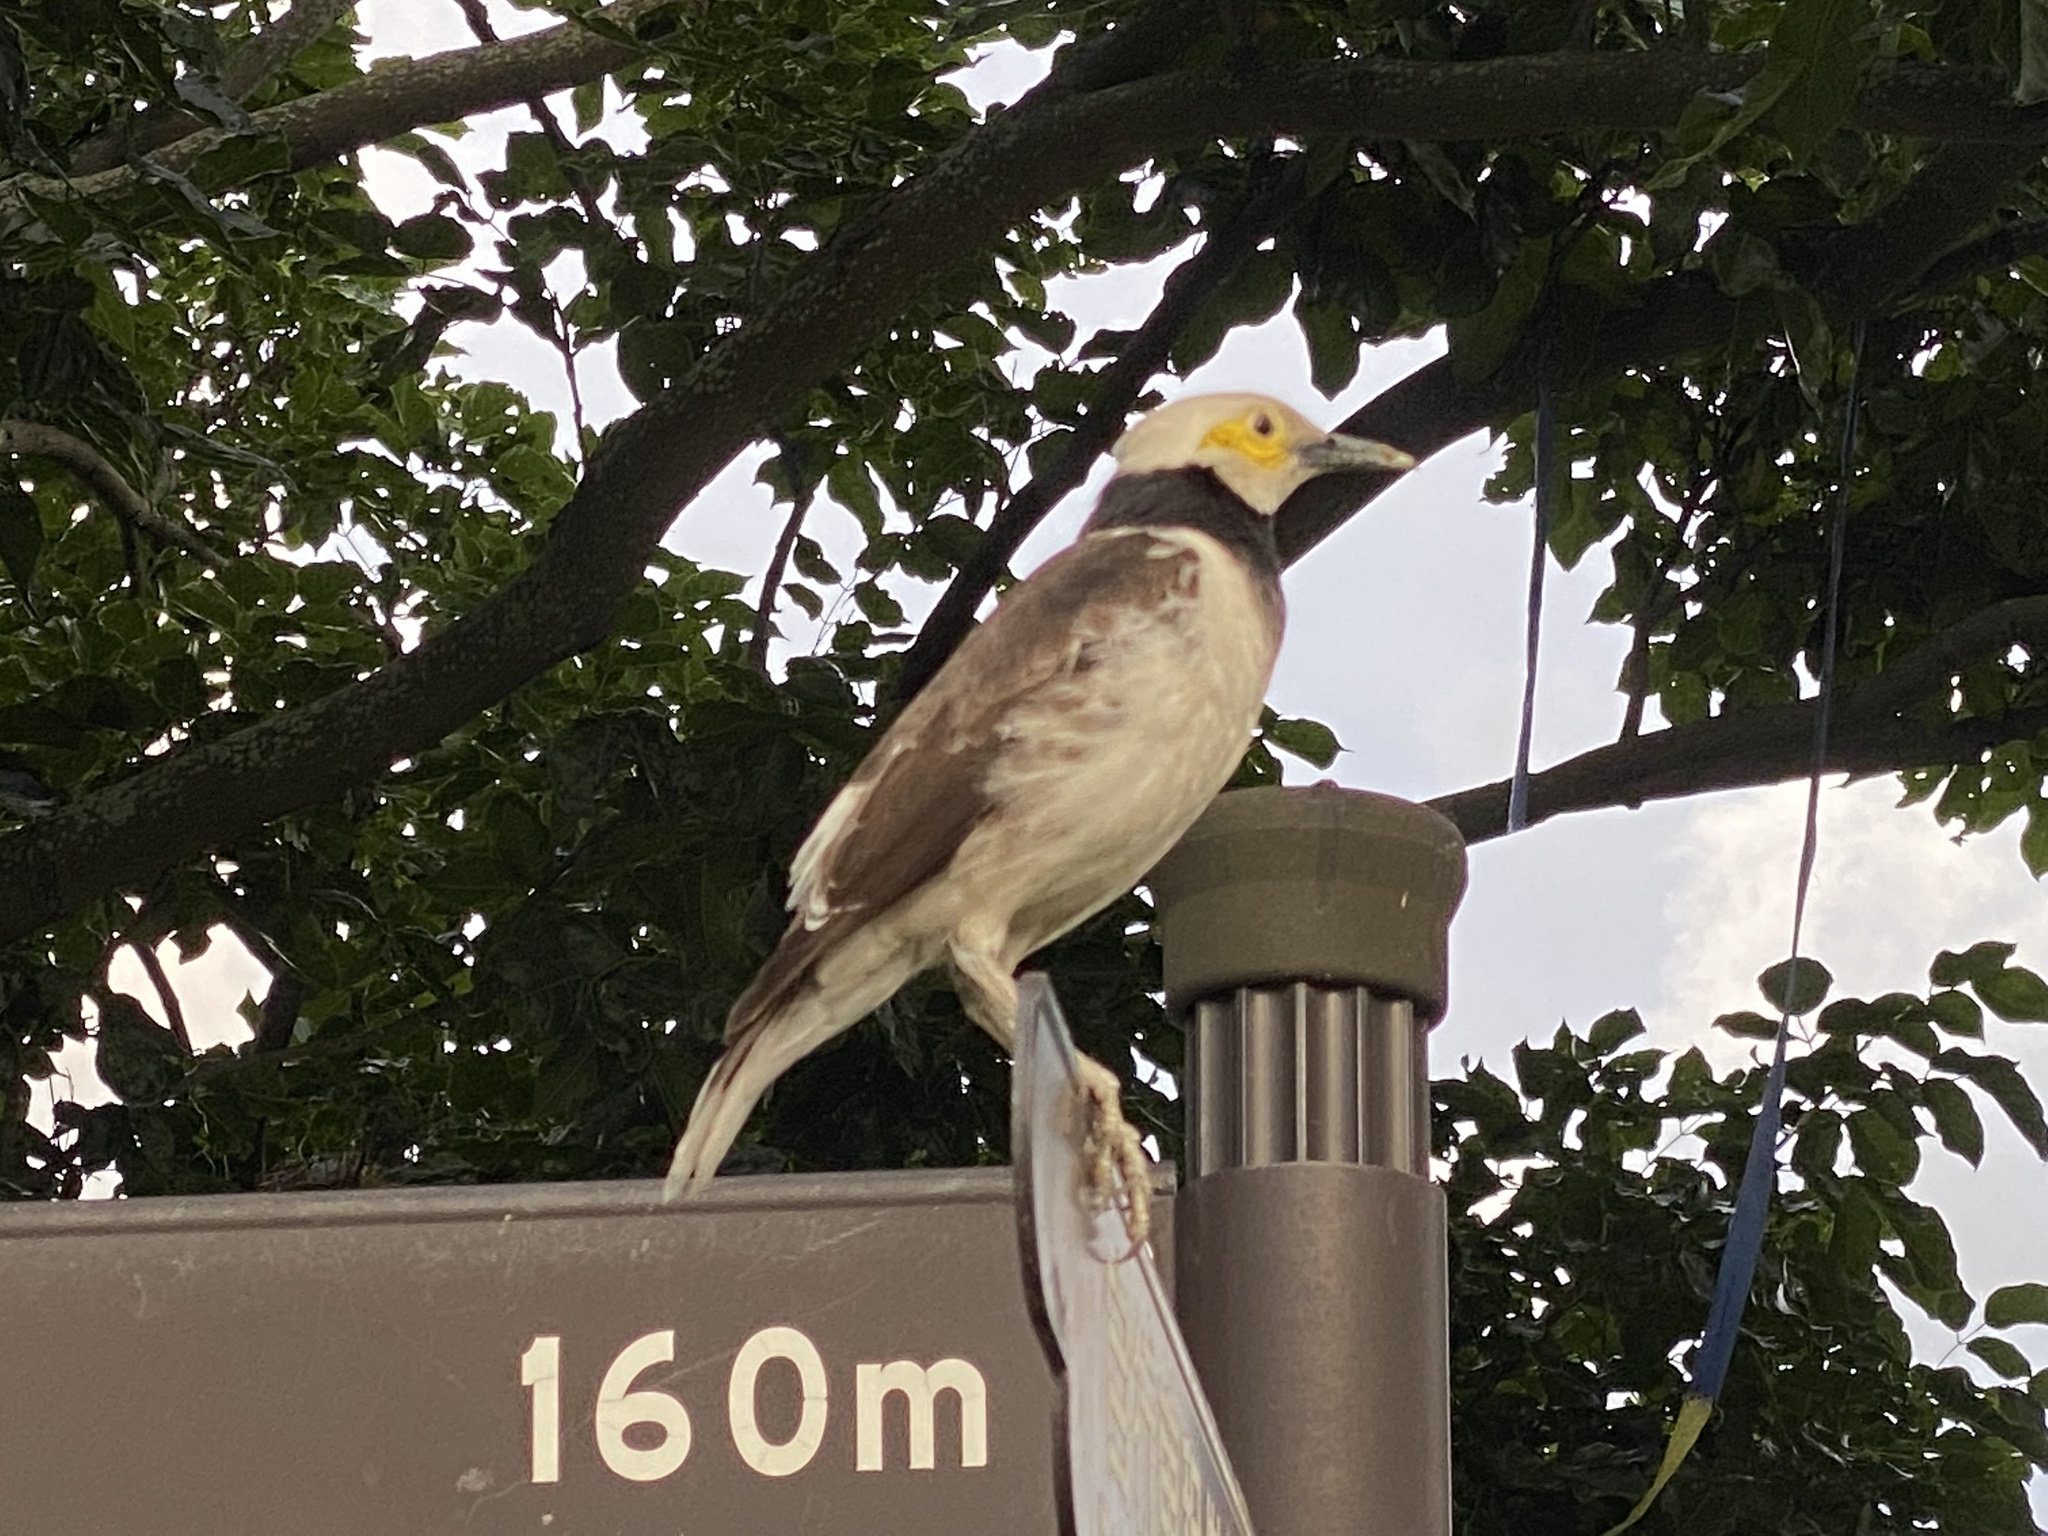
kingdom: Animalia
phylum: Chordata
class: Aves
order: Passeriformes
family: Sturnidae
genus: Gracupica
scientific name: Gracupica nigricollis
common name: Black-collared starling
